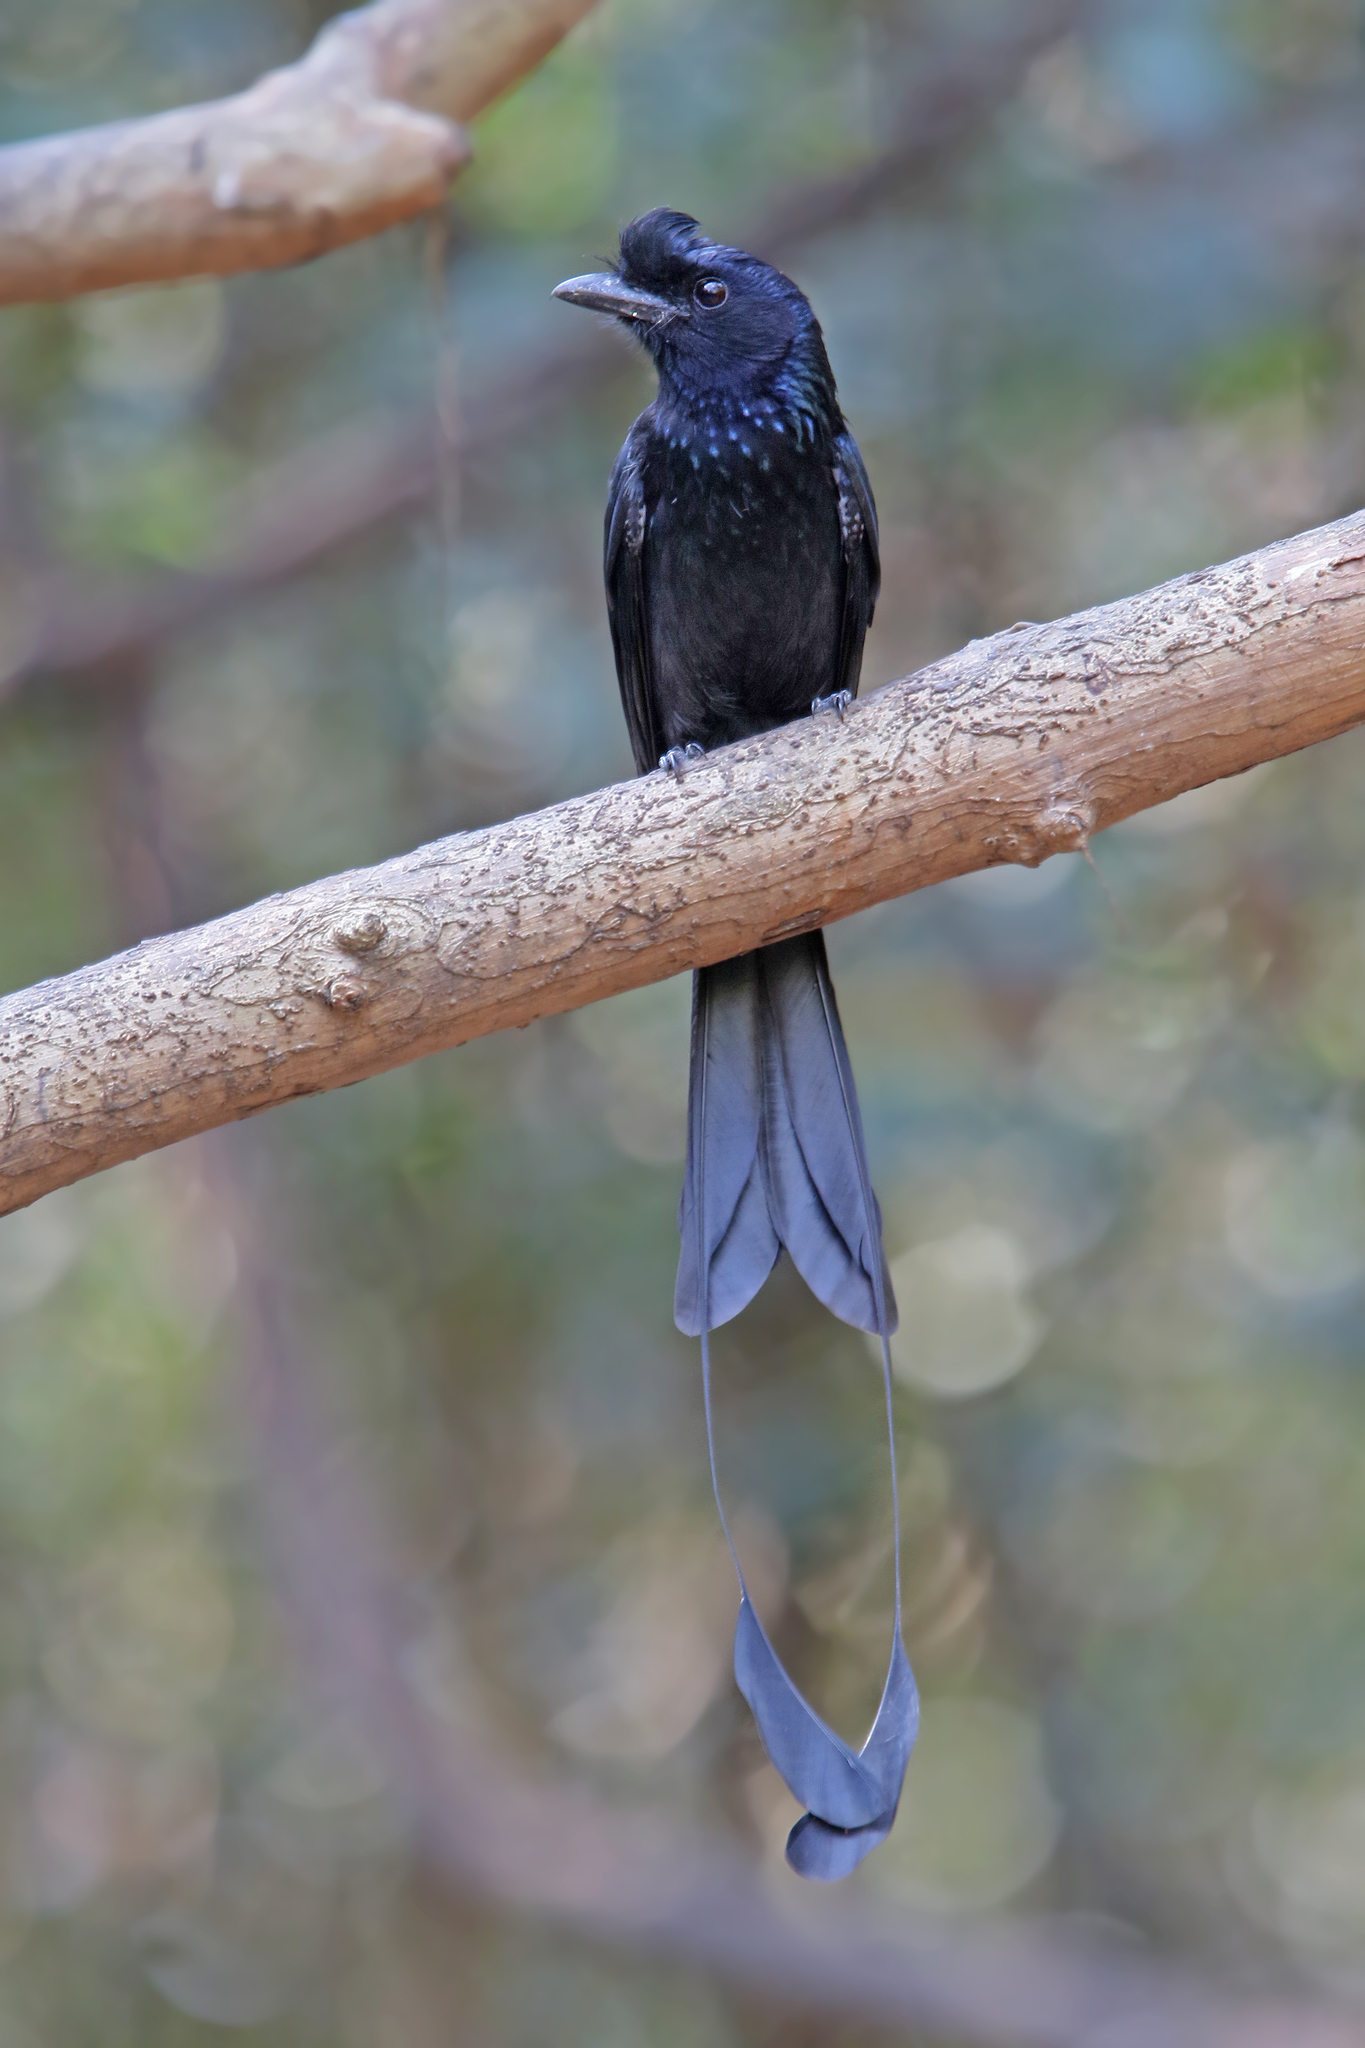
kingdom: Animalia
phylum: Chordata
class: Aves
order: Passeriformes
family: Dicruridae
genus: Dicrurus
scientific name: Dicrurus paradiseus
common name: Greater racket-tailed drongo
